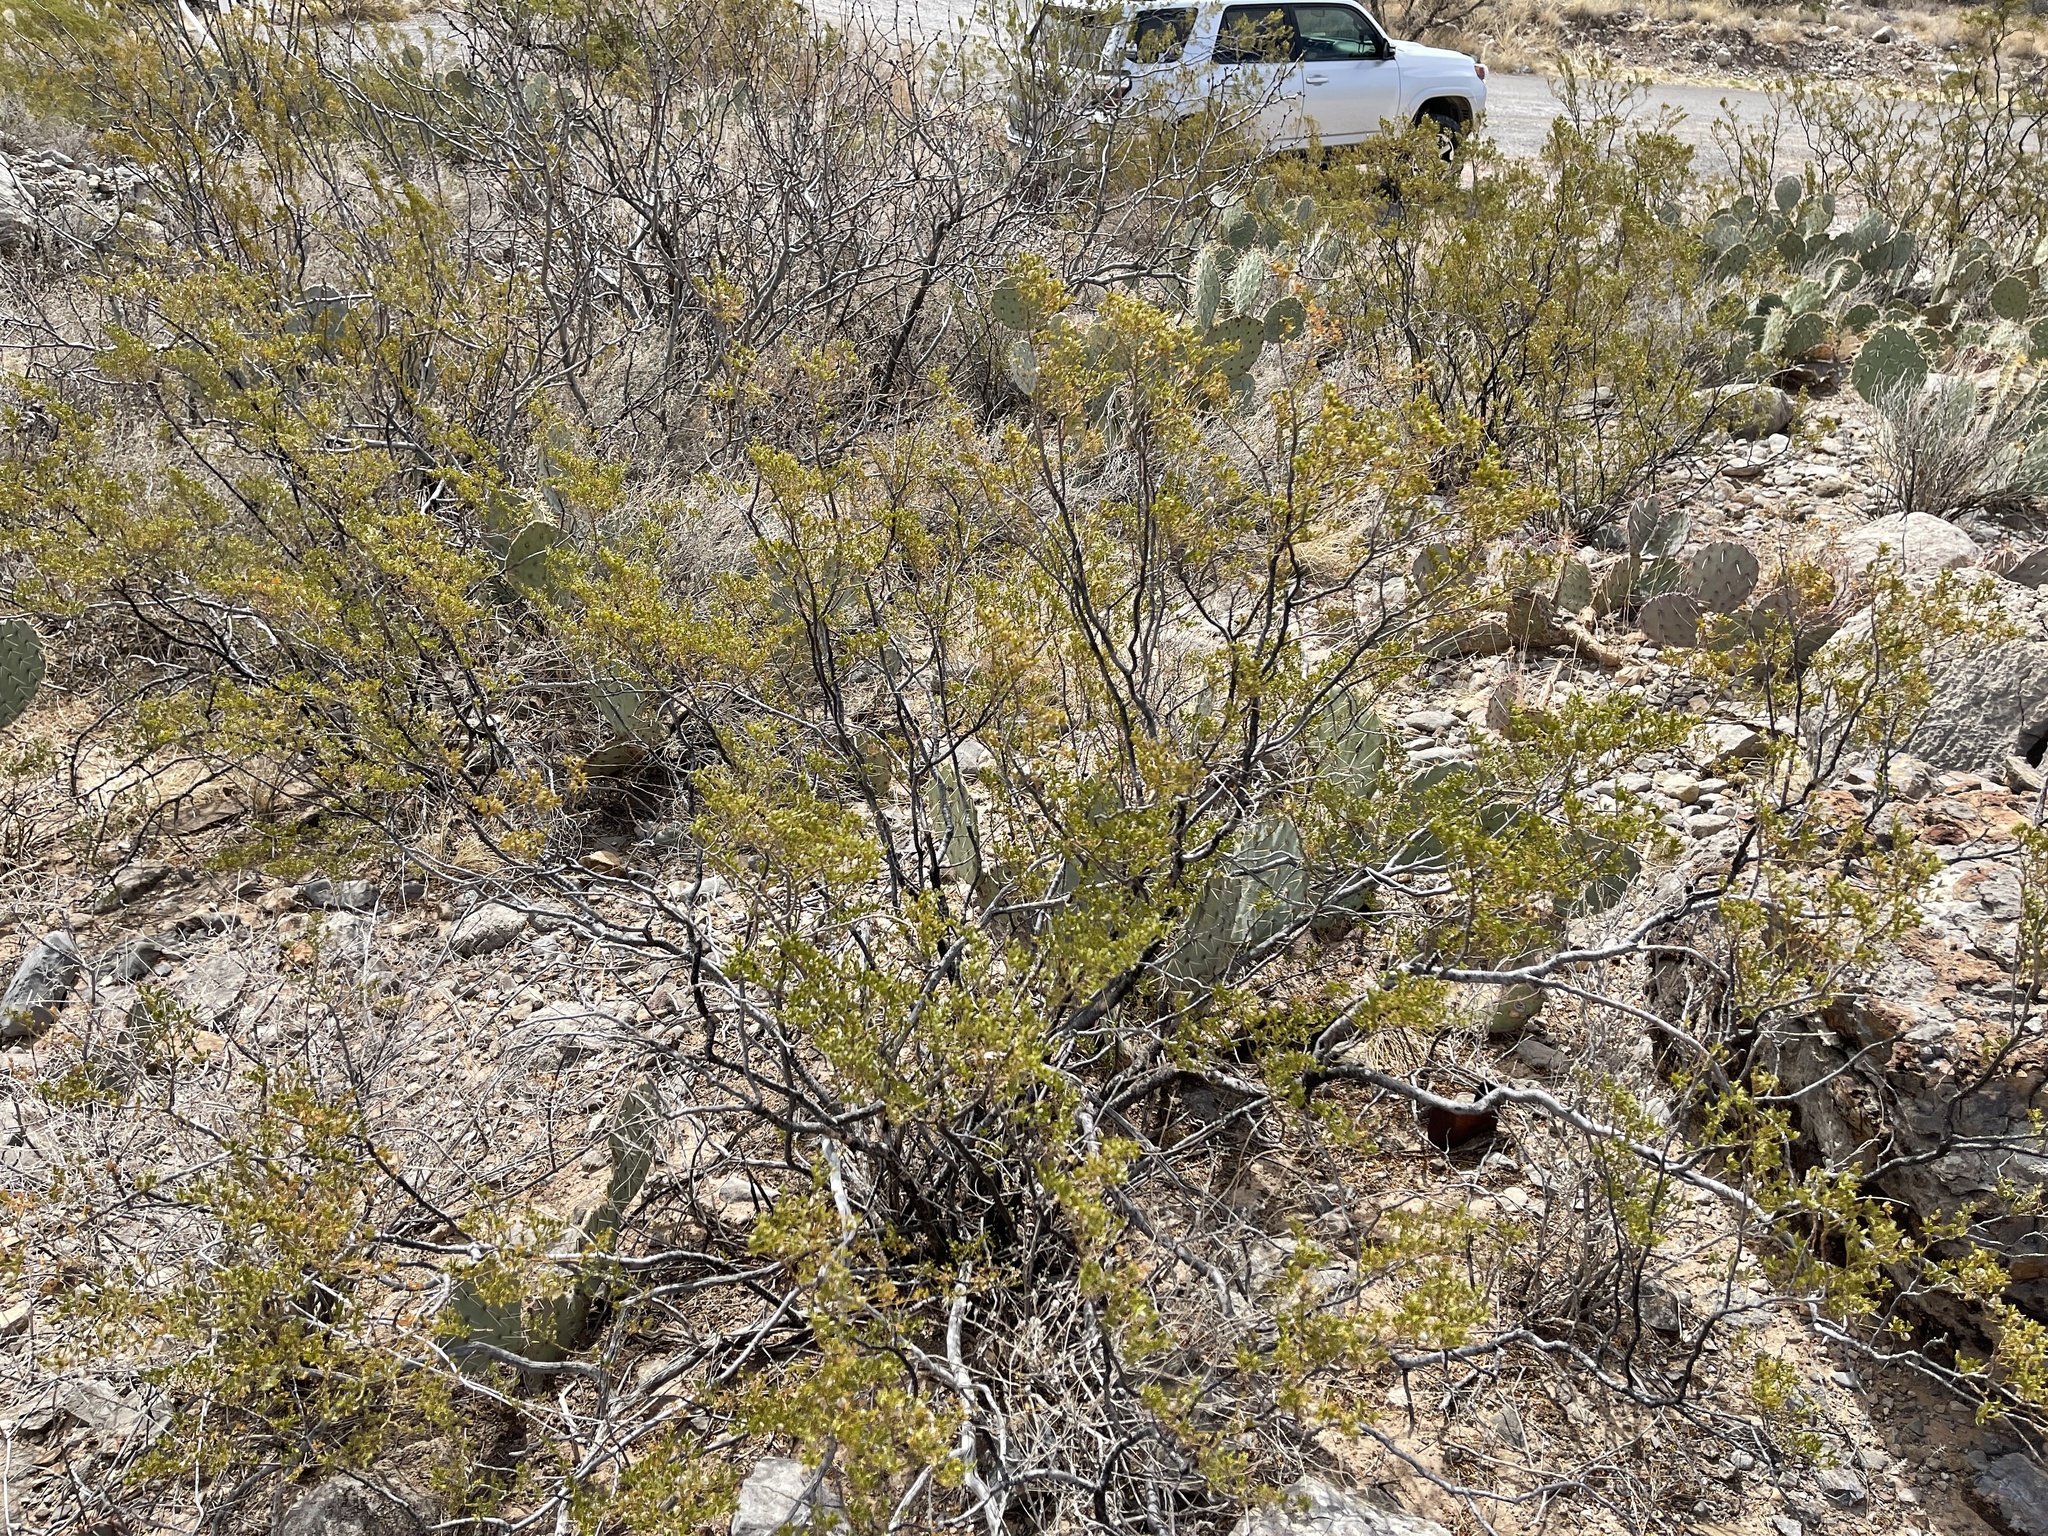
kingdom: Plantae
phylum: Tracheophyta
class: Magnoliopsida
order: Zygophyllales
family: Zygophyllaceae
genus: Larrea
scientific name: Larrea tridentata
